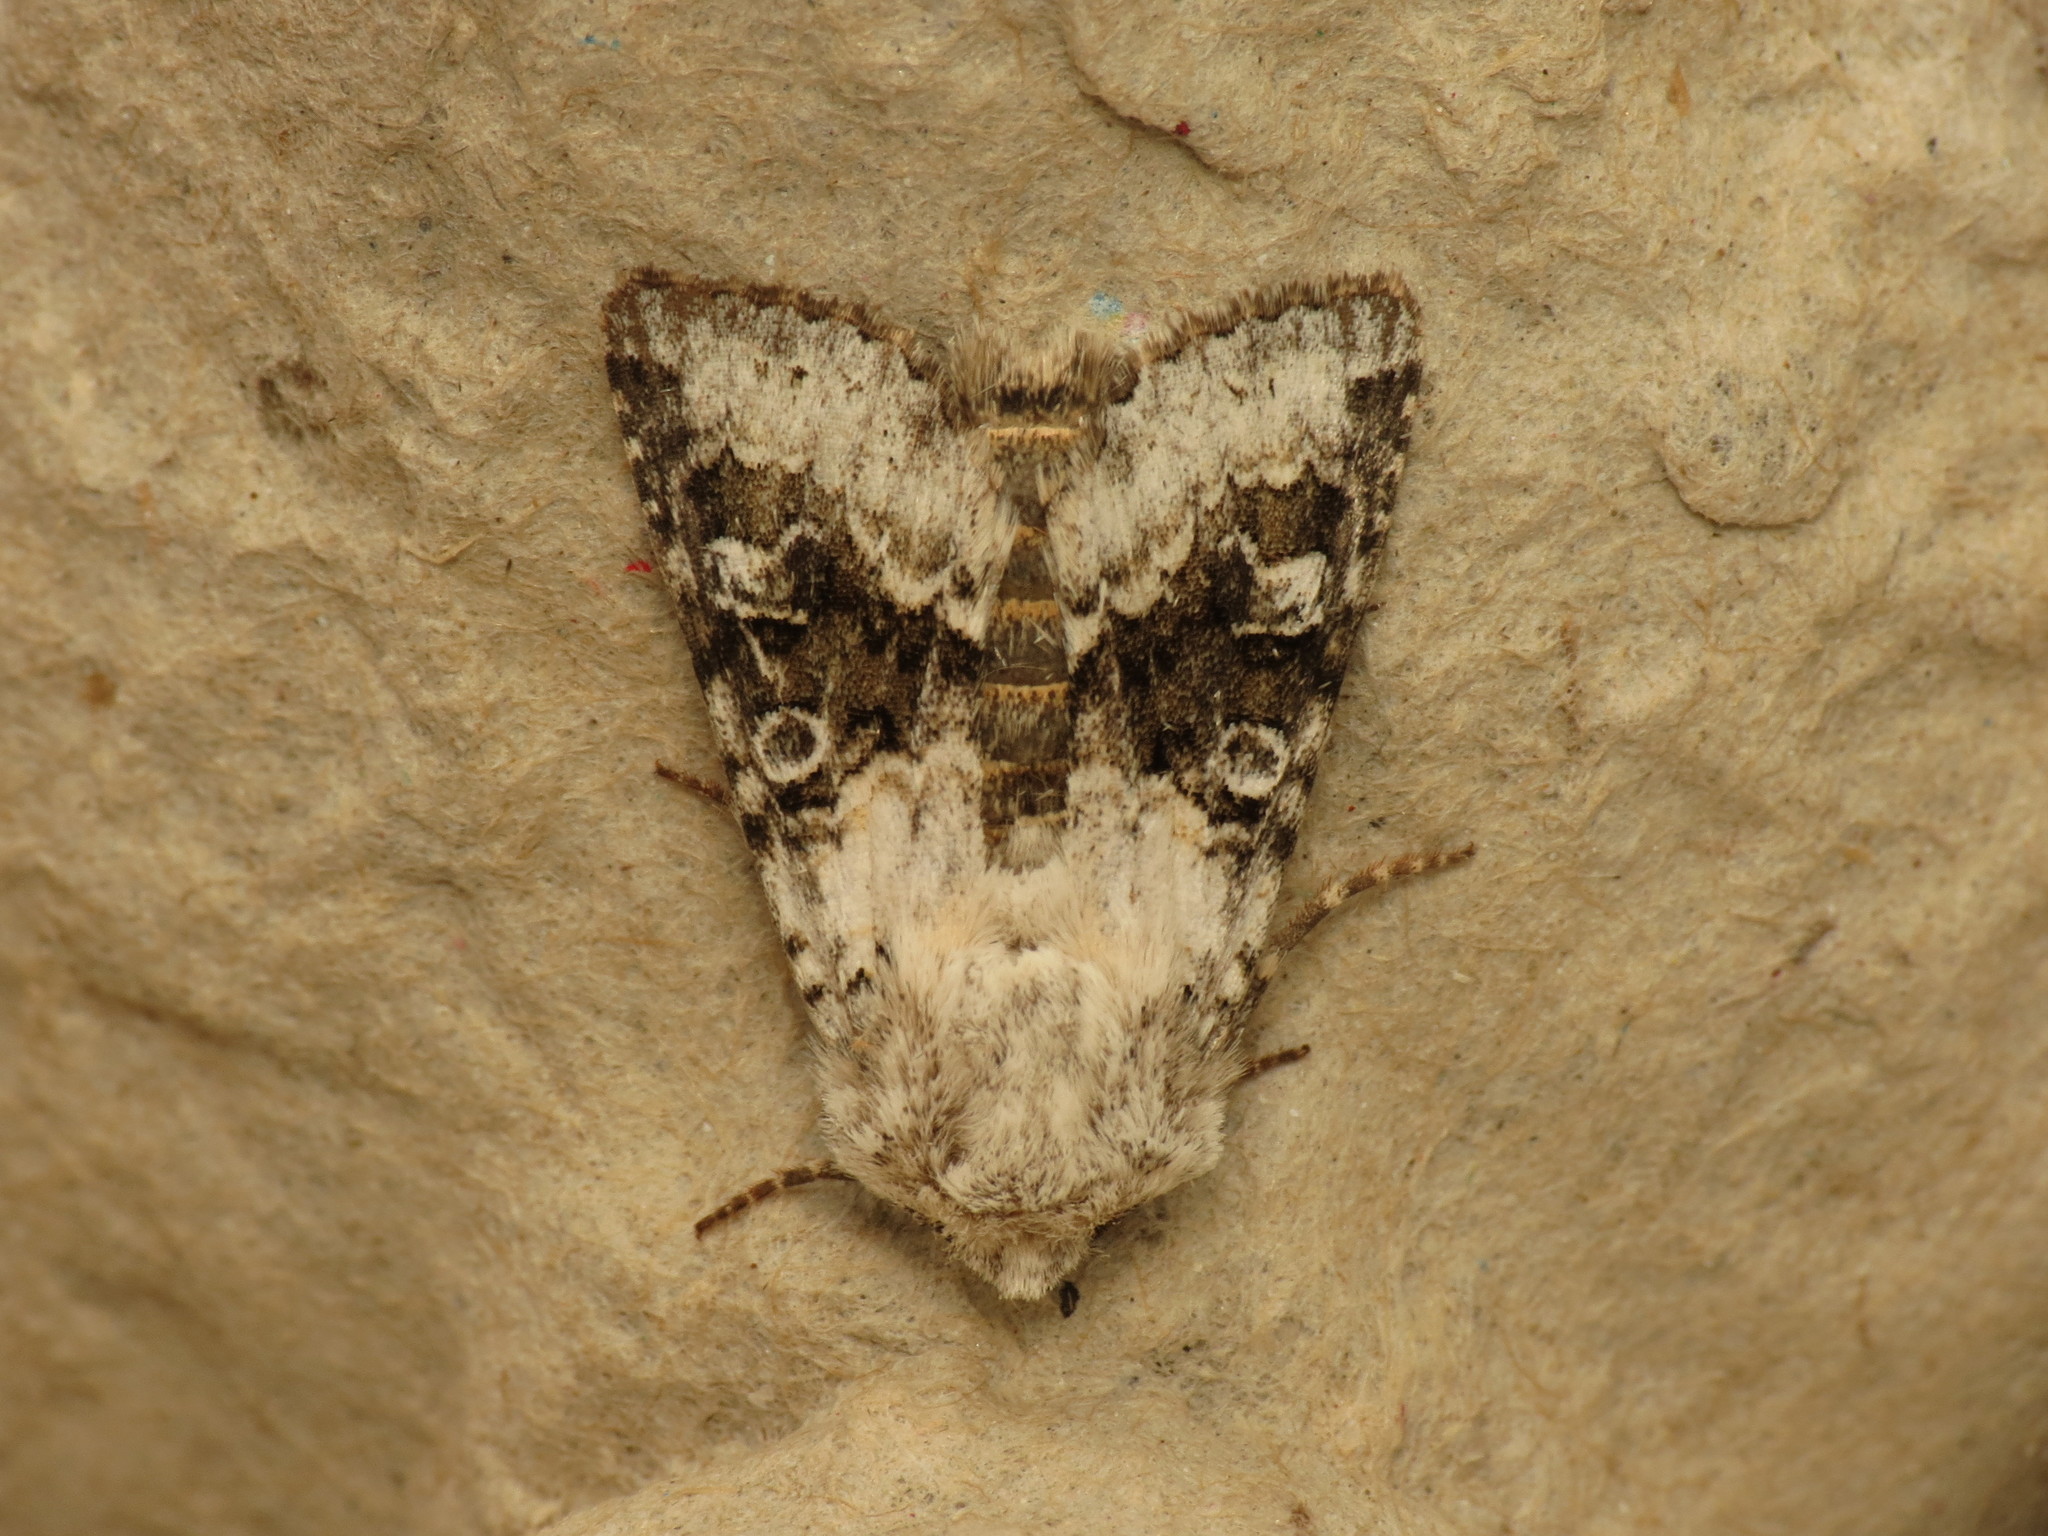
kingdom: Animalia
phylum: Arthropoda
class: Insecta
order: Lepidoptera
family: Noctuidae
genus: Hecatera
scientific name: Hecatera bicolorata
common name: Broad-barred white
